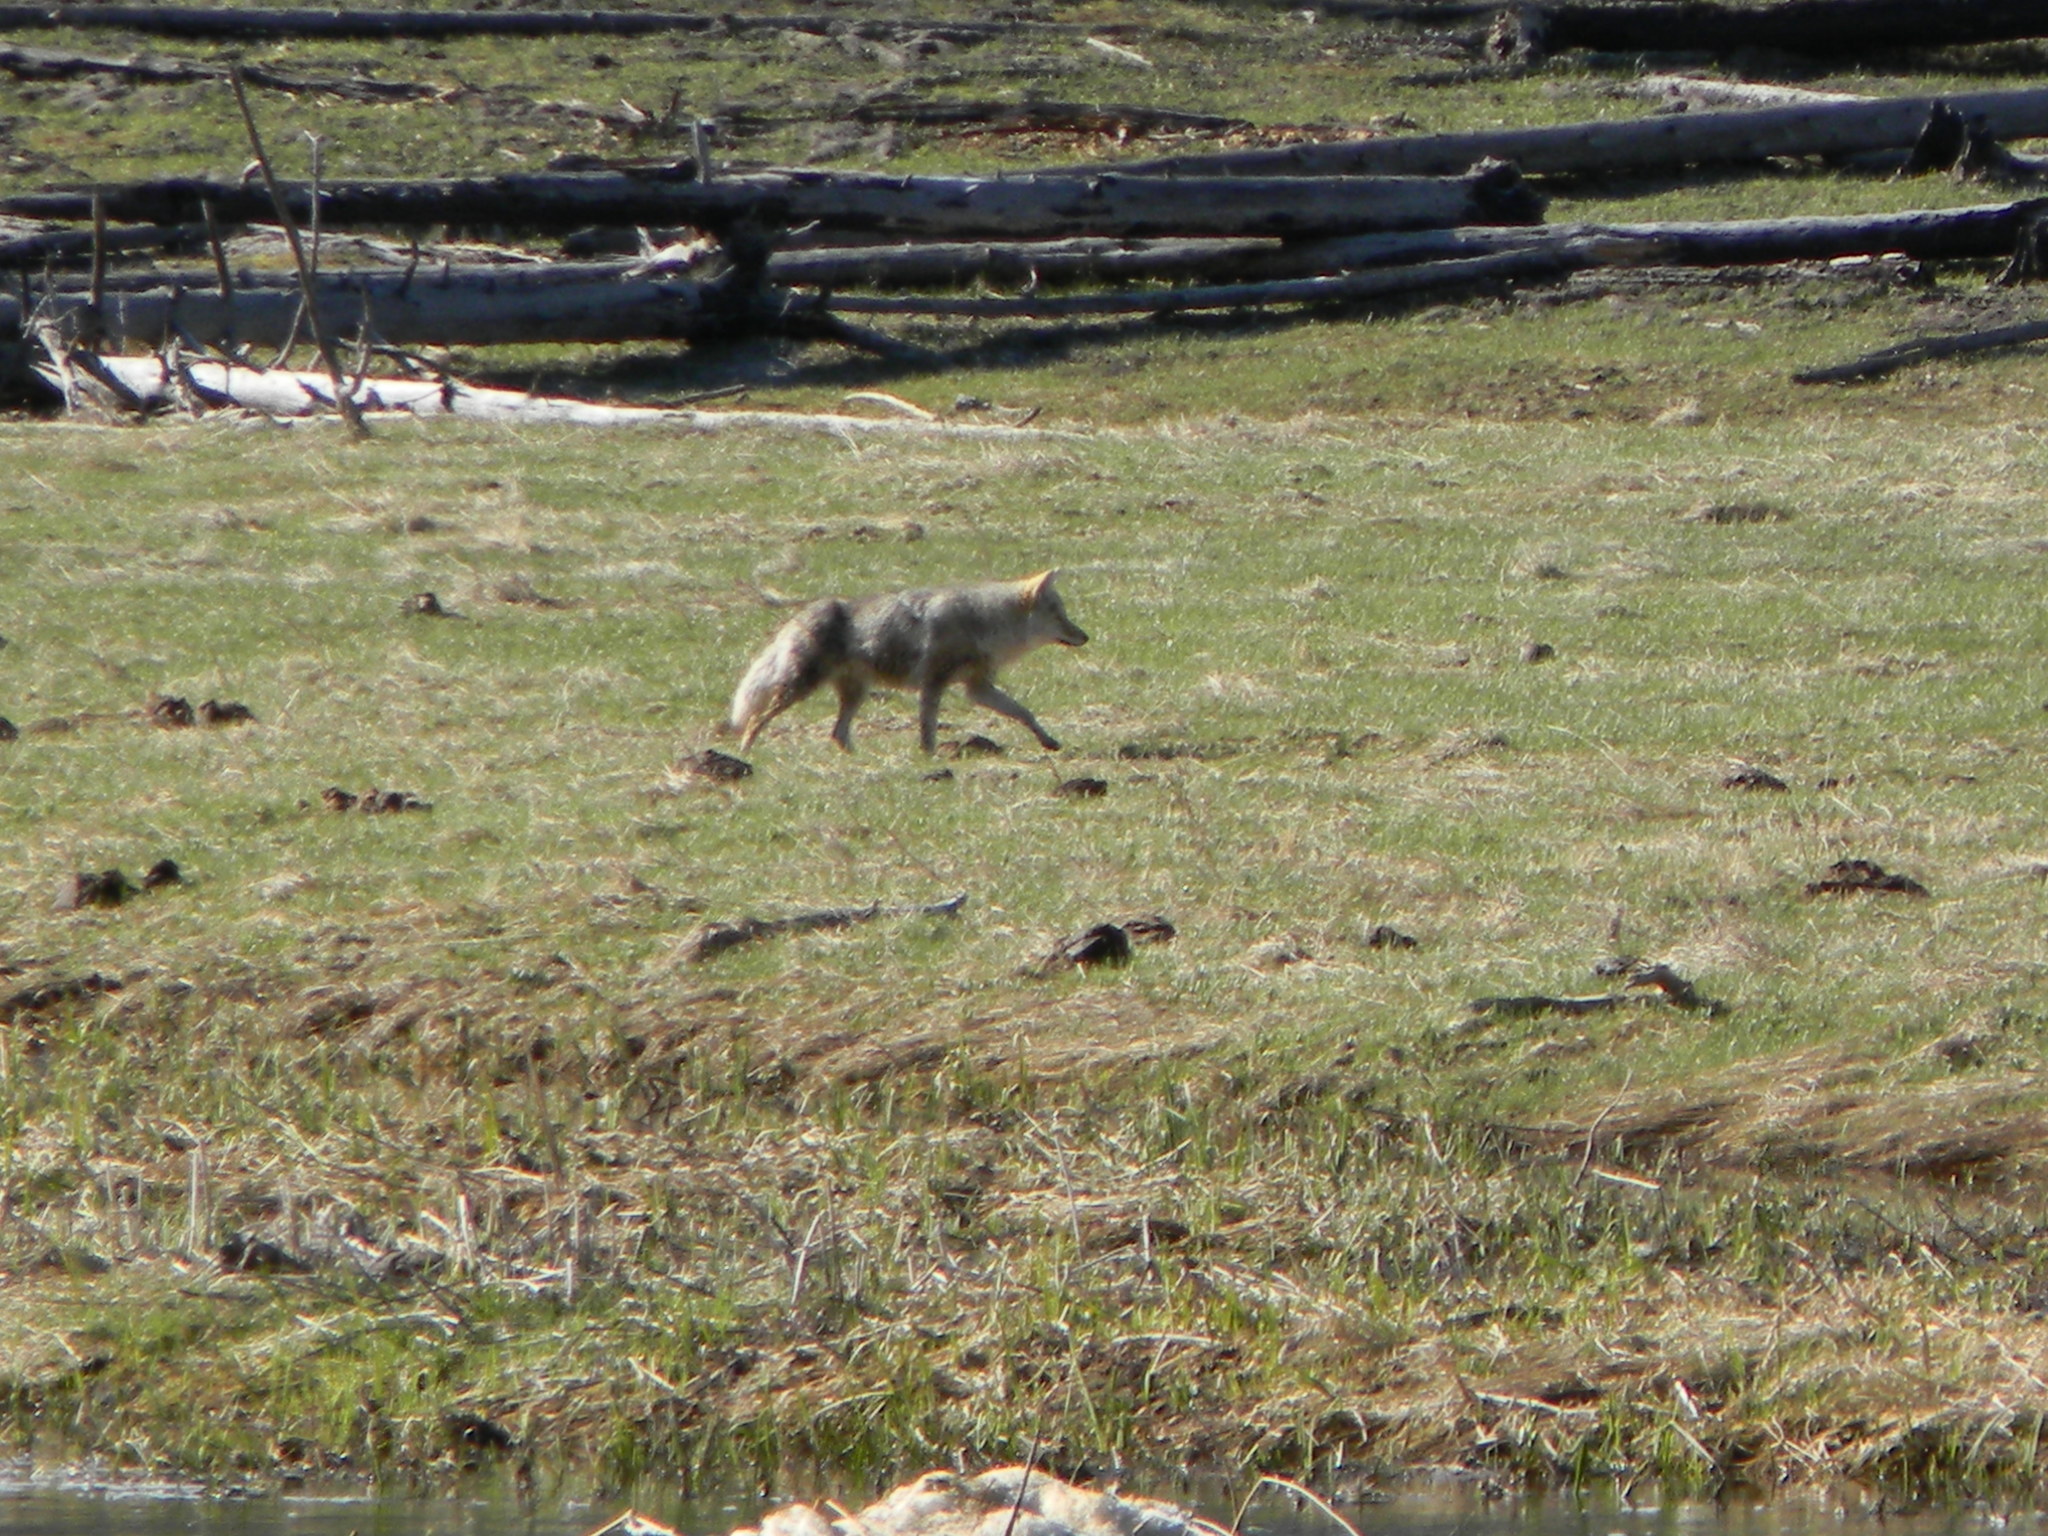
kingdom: Animalia
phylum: Chordata
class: Mammalia
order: Carnivora
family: Canidae
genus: Canis
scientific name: Canis latrans
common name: Coyote
